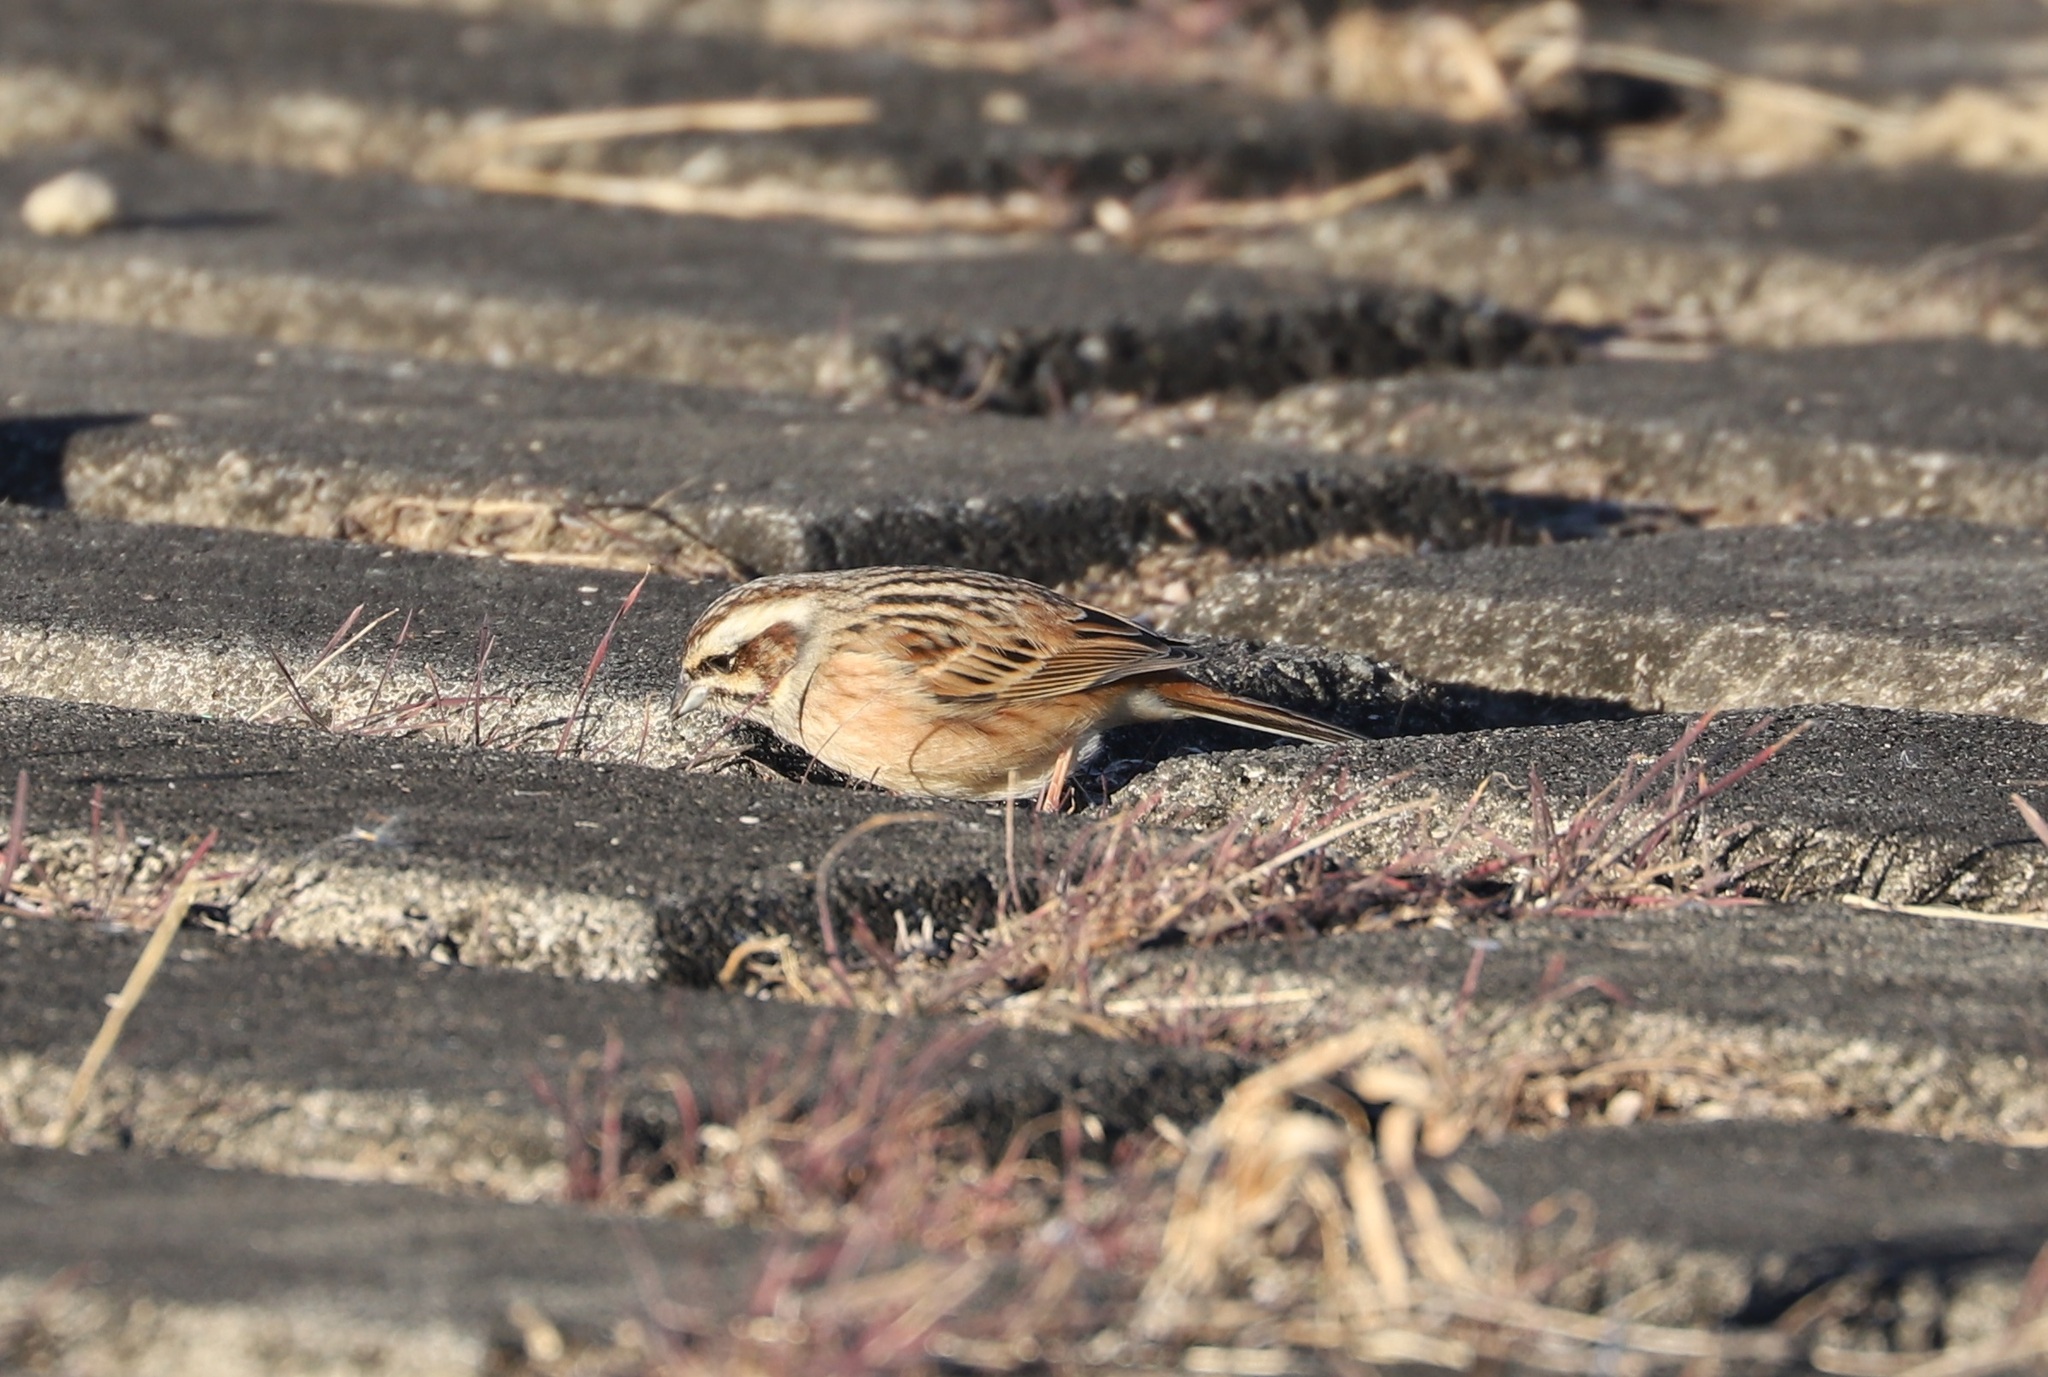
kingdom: Animalia
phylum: Chordata
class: Aves
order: Passeriformes
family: Emberizidae
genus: Emberiza
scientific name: Emberiza cioides
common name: Meadow bunting
